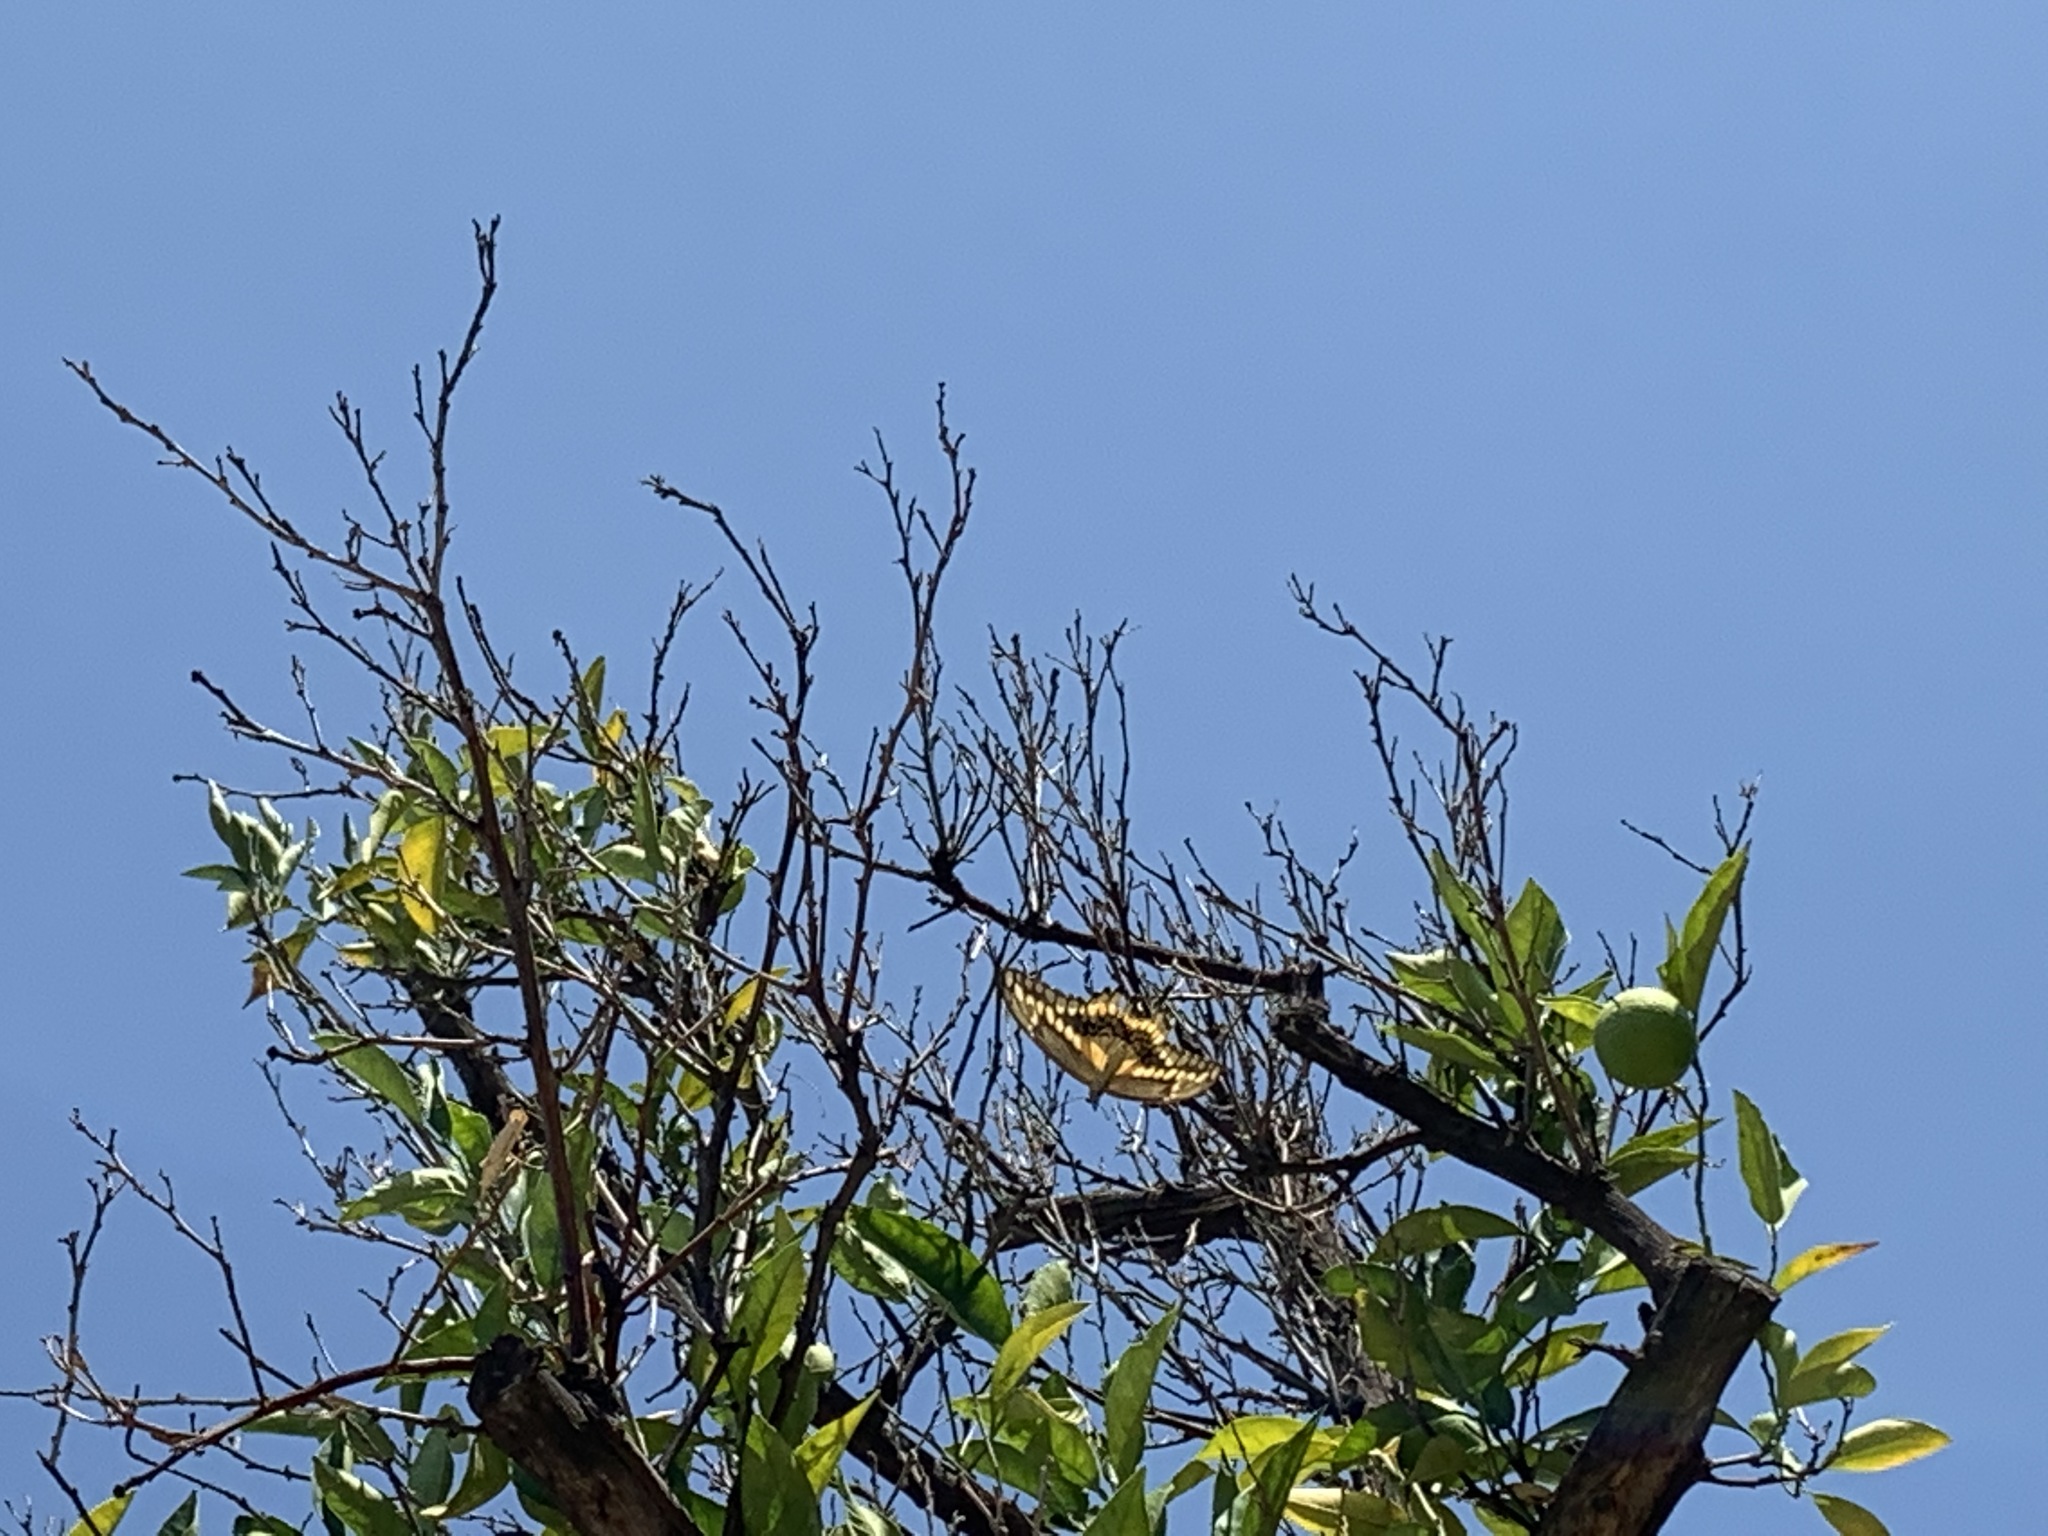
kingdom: Animalia
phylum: Arthropoda
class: Insecta
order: Lepidoptera
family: Papilionidae
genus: Papilio
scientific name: Papilio rumiko
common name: Western giant swallowtail
